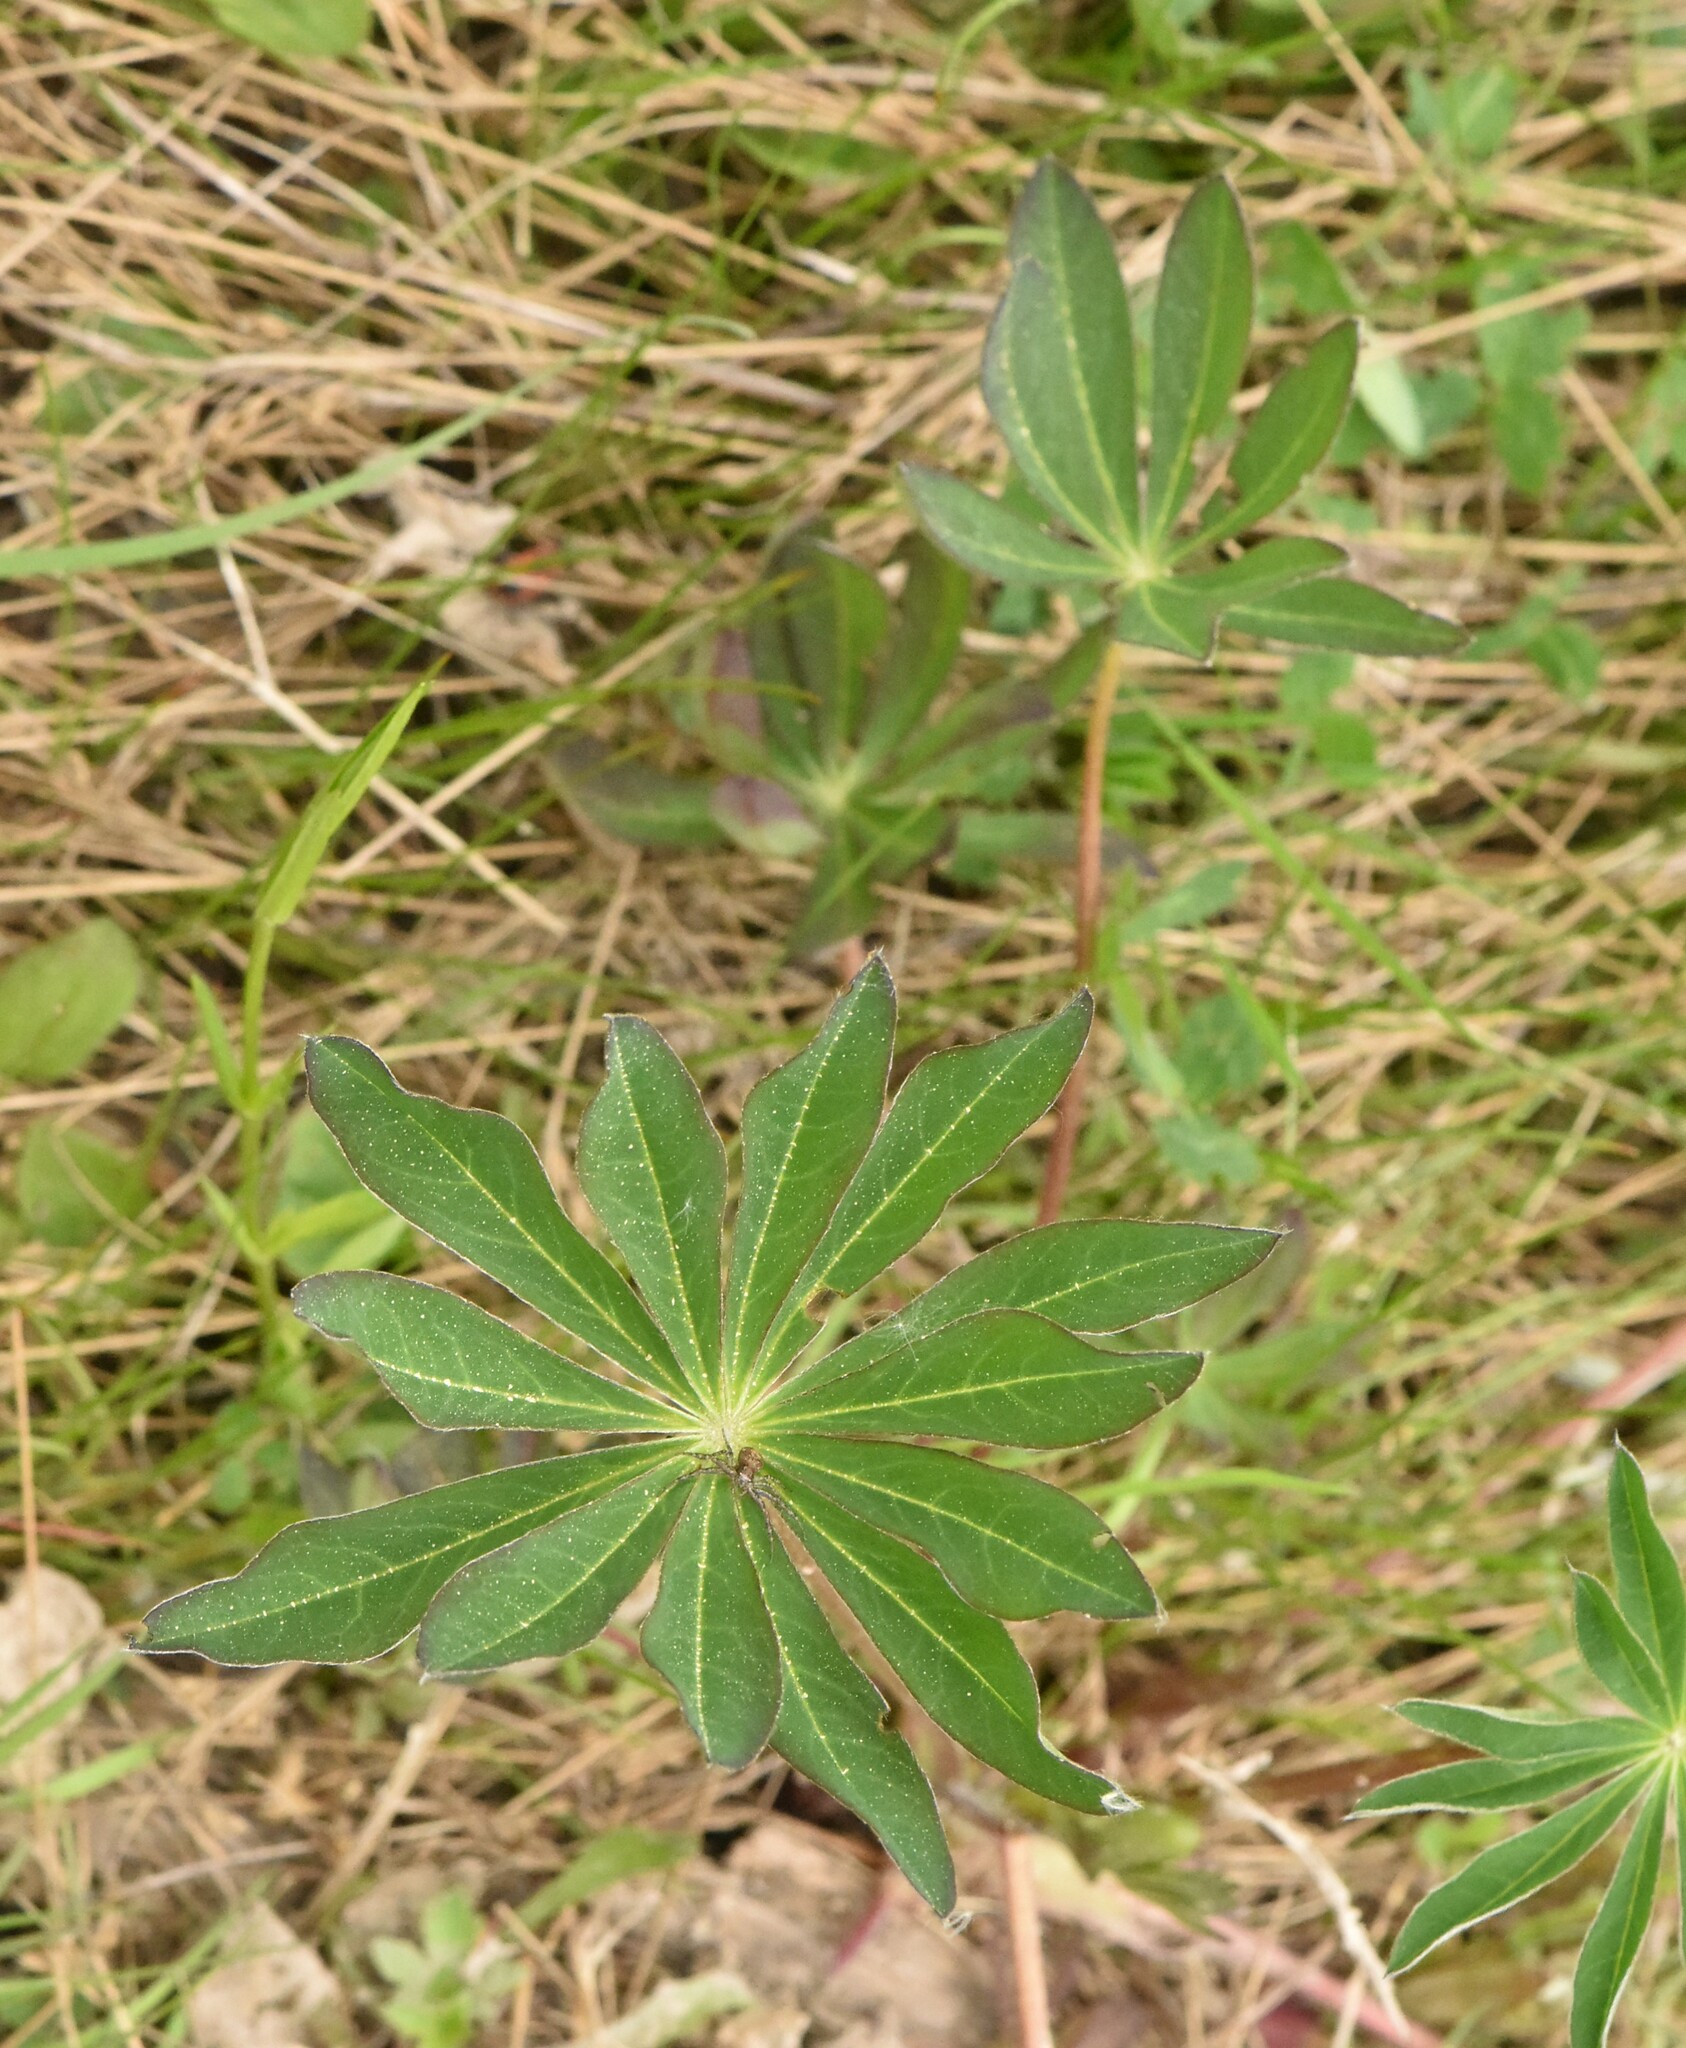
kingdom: Plantae
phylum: Tracheophyta
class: Magnoliopsida
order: Fabales
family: Fabaceae
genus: Lupinus
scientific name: Lupinus polyphyllus
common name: Garden lupin
